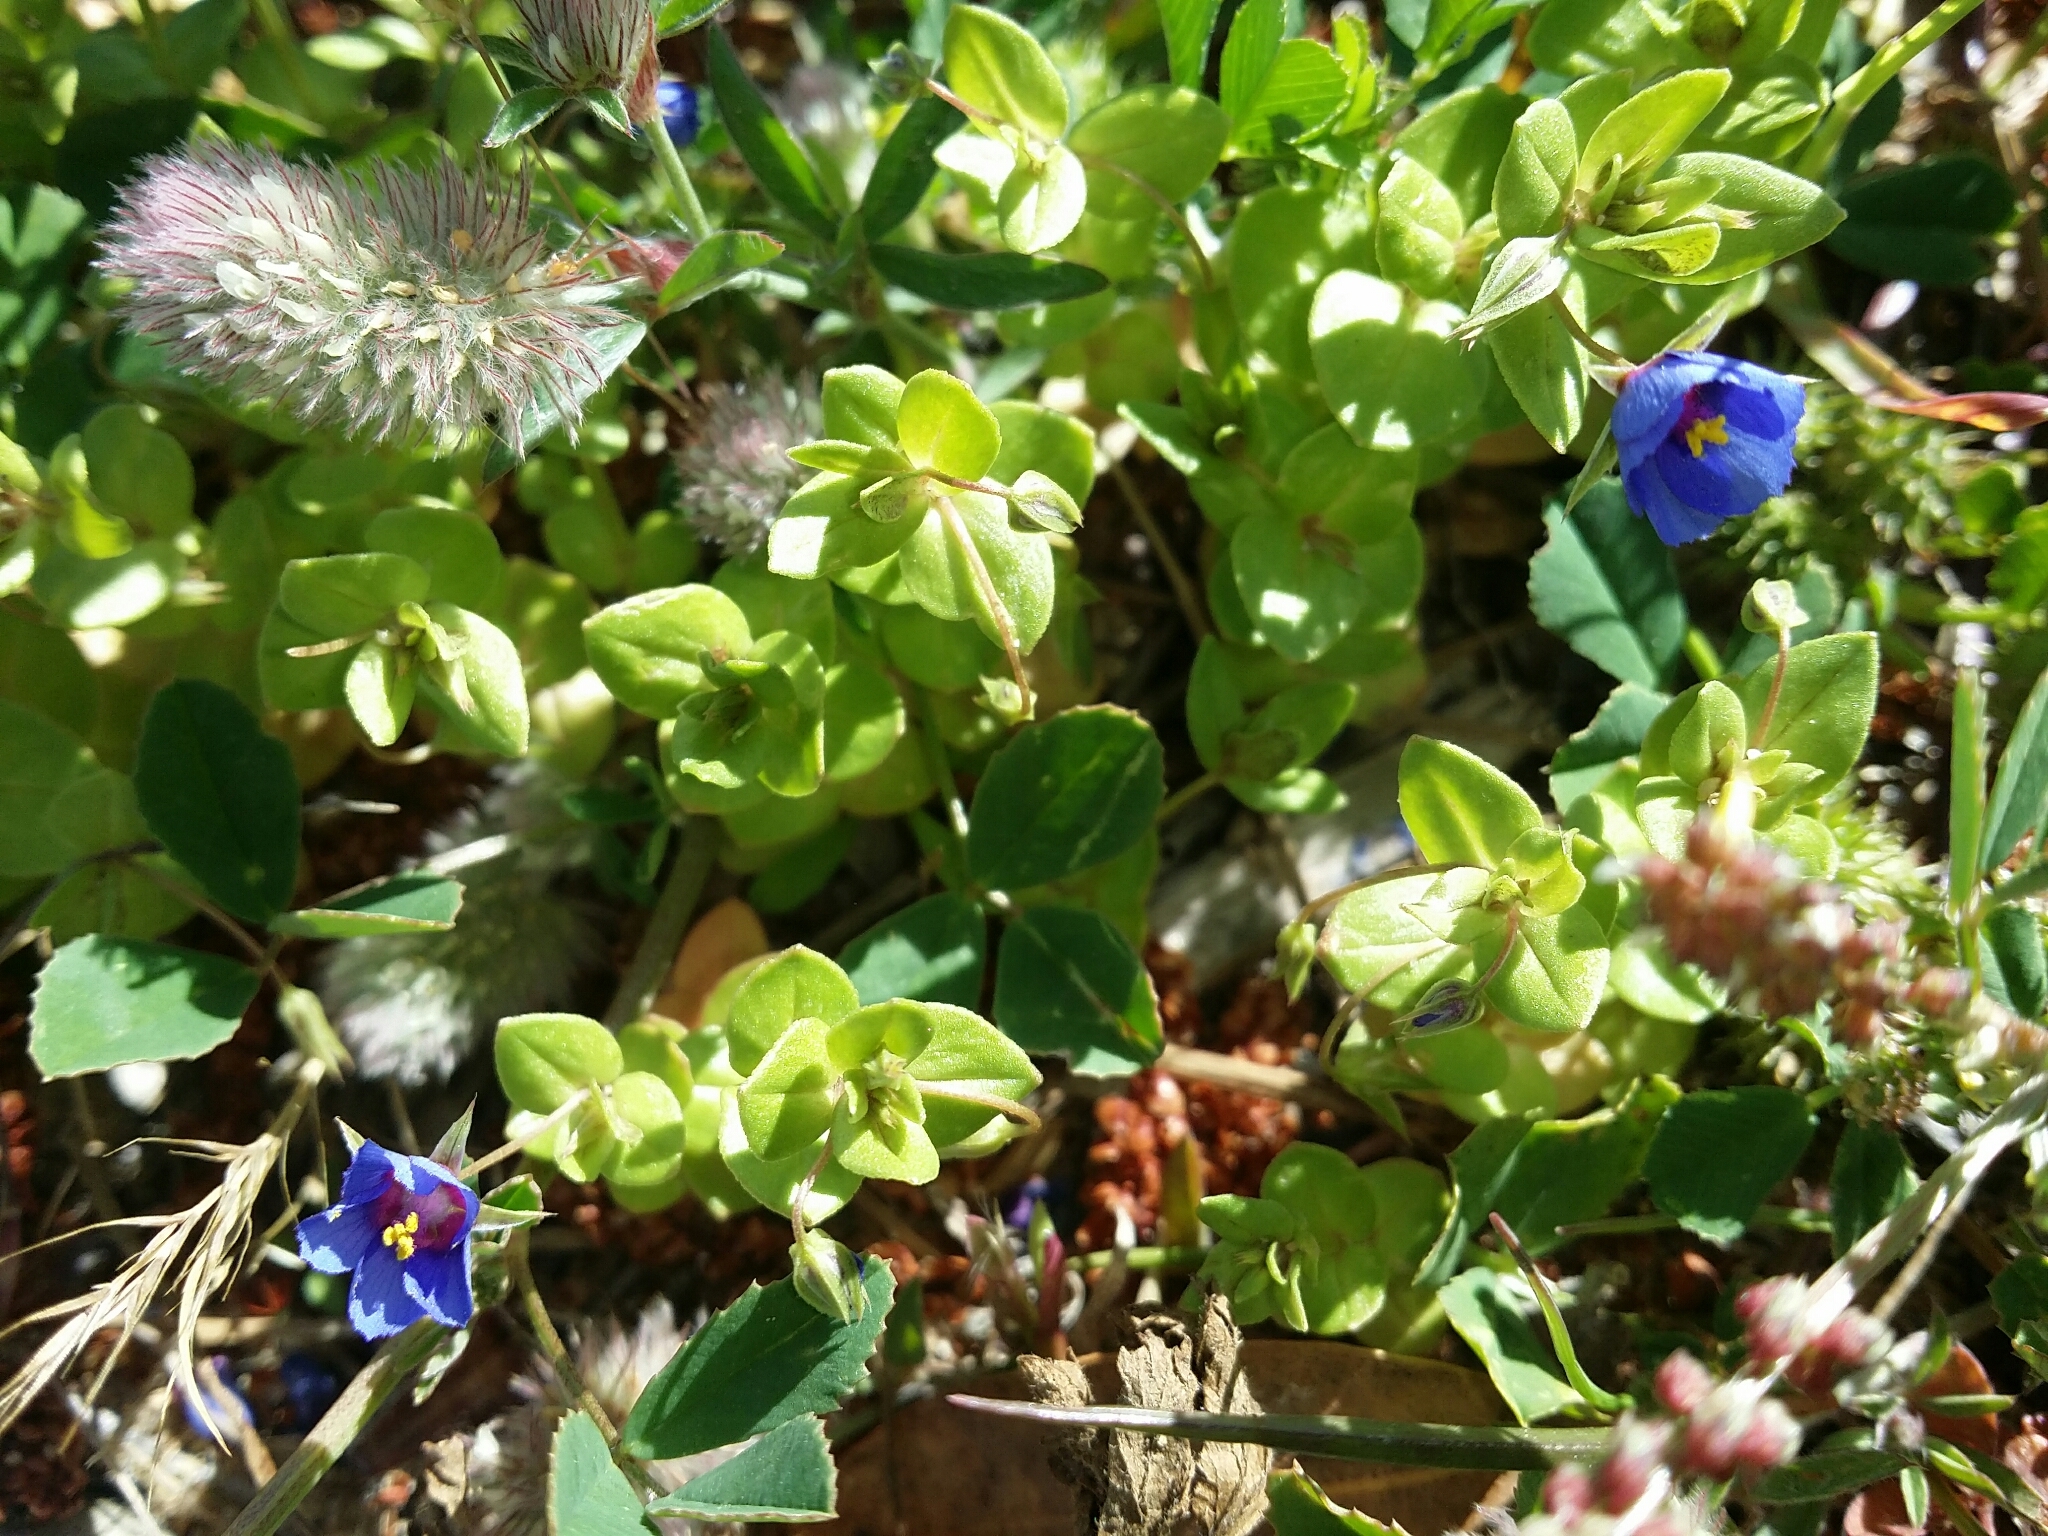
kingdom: Plantae
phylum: Tracheophyta
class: Magnoliopsida
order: Ericales
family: Primulaceae
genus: Lysimachia
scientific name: Lysimachia loeflingii
